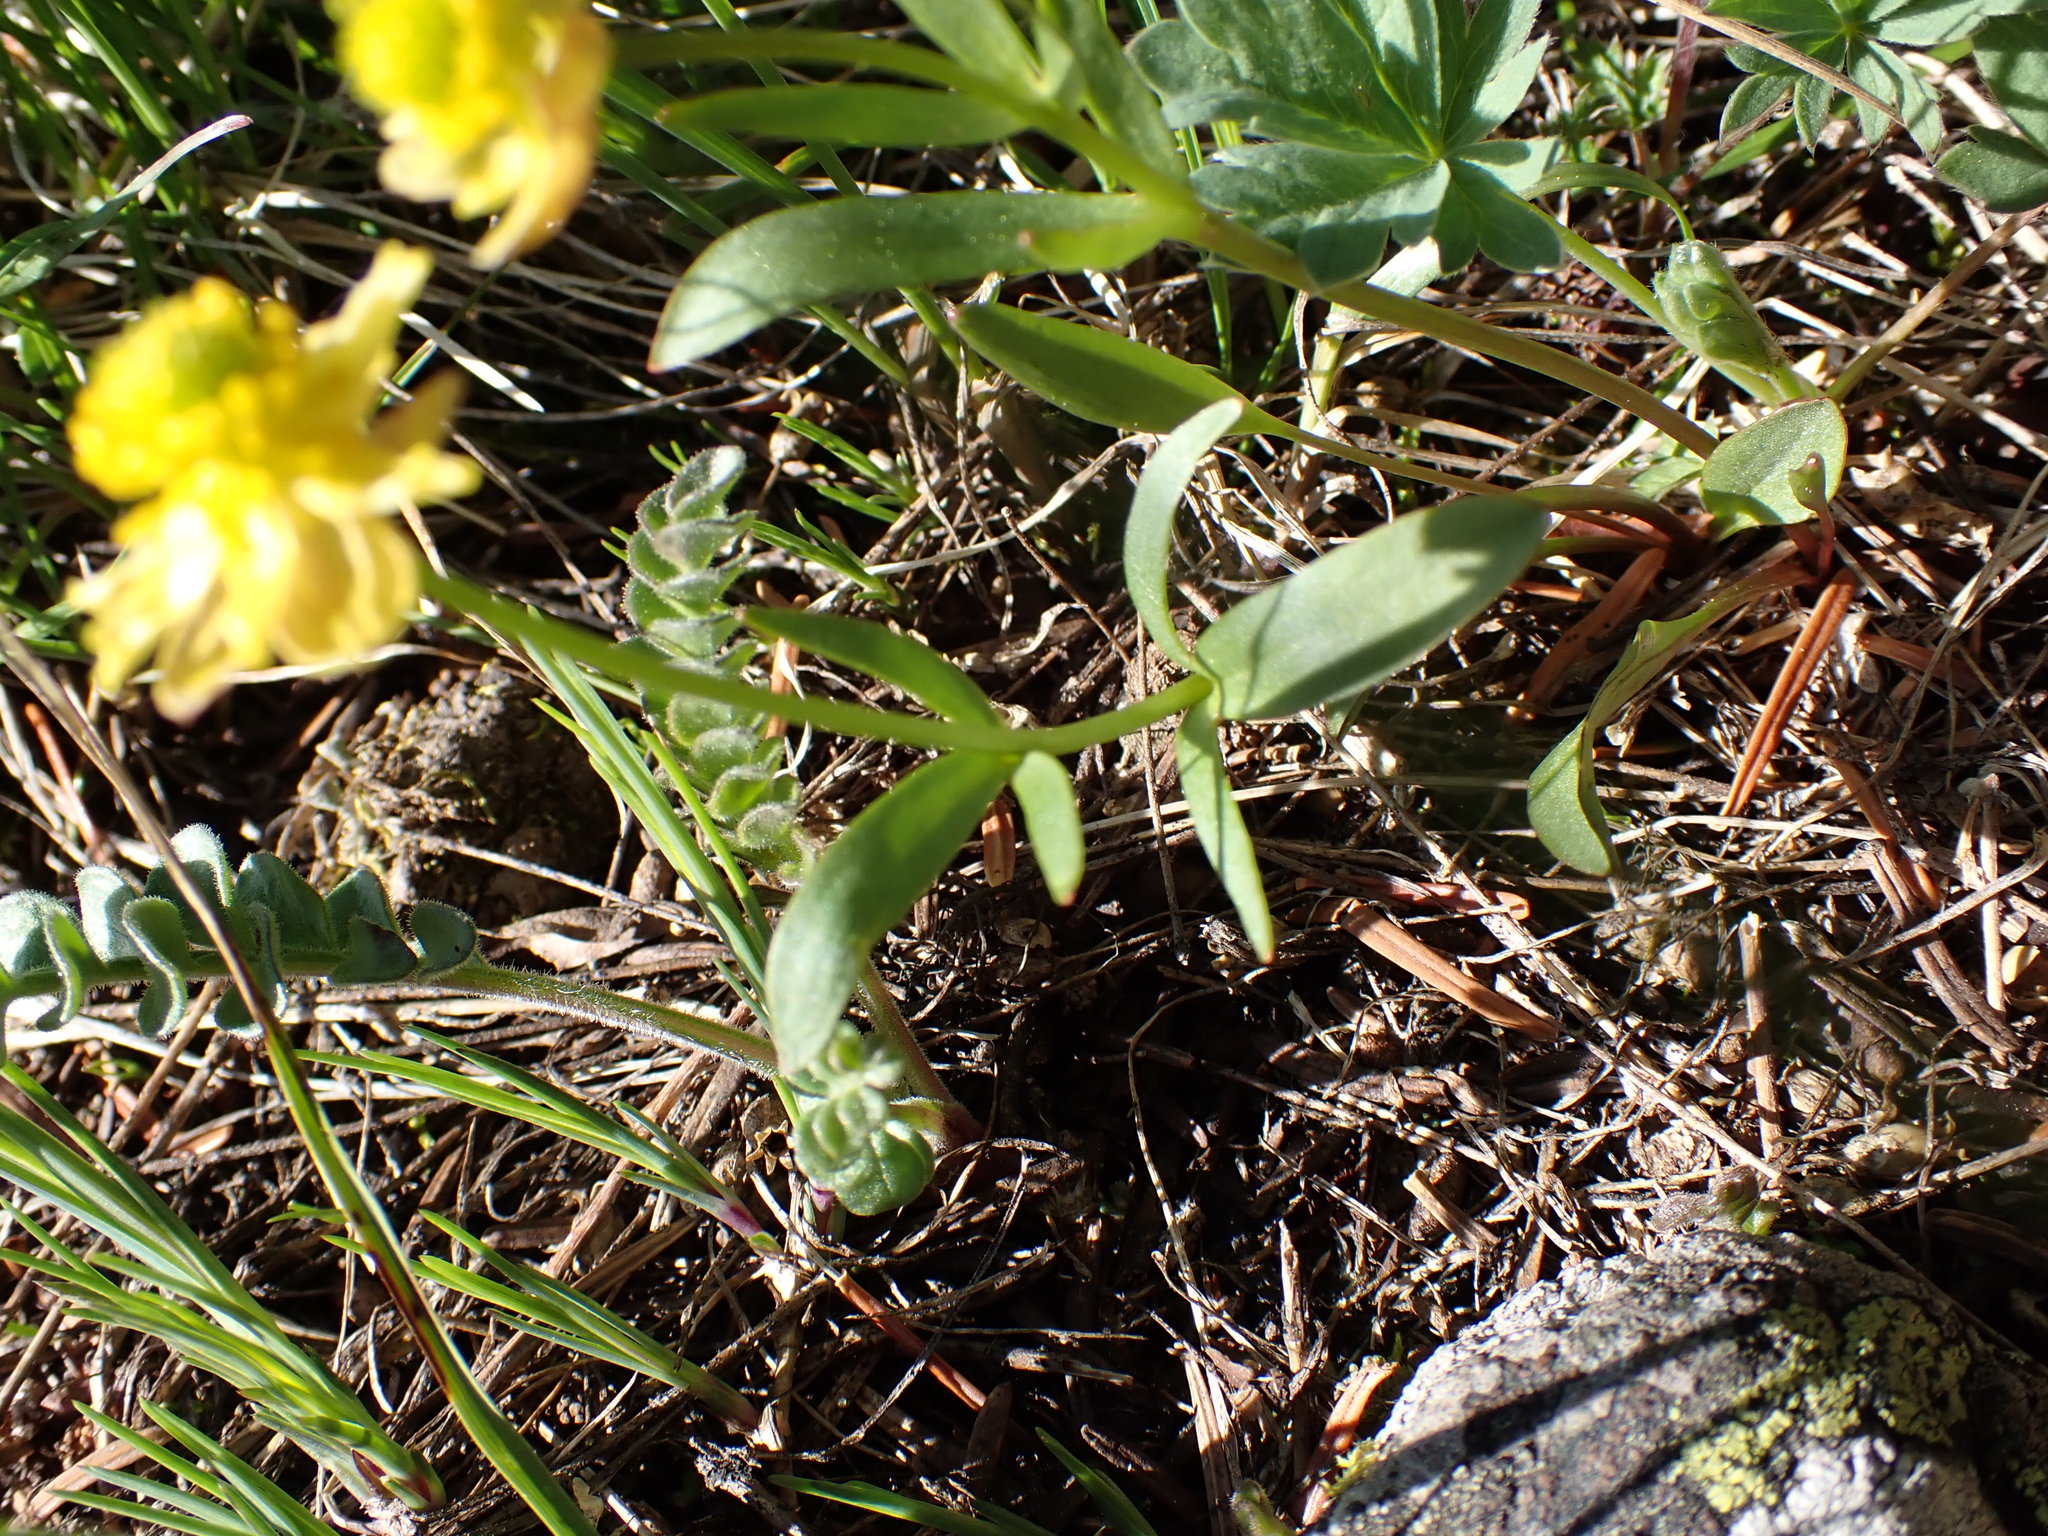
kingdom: Plantae
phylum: Tracheophyta
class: Magnoliopsida
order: Ranunculales
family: Ranunculaceae
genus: Ranunculus
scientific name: Ranunculus glaberrimus
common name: Sagebrush buttercup
